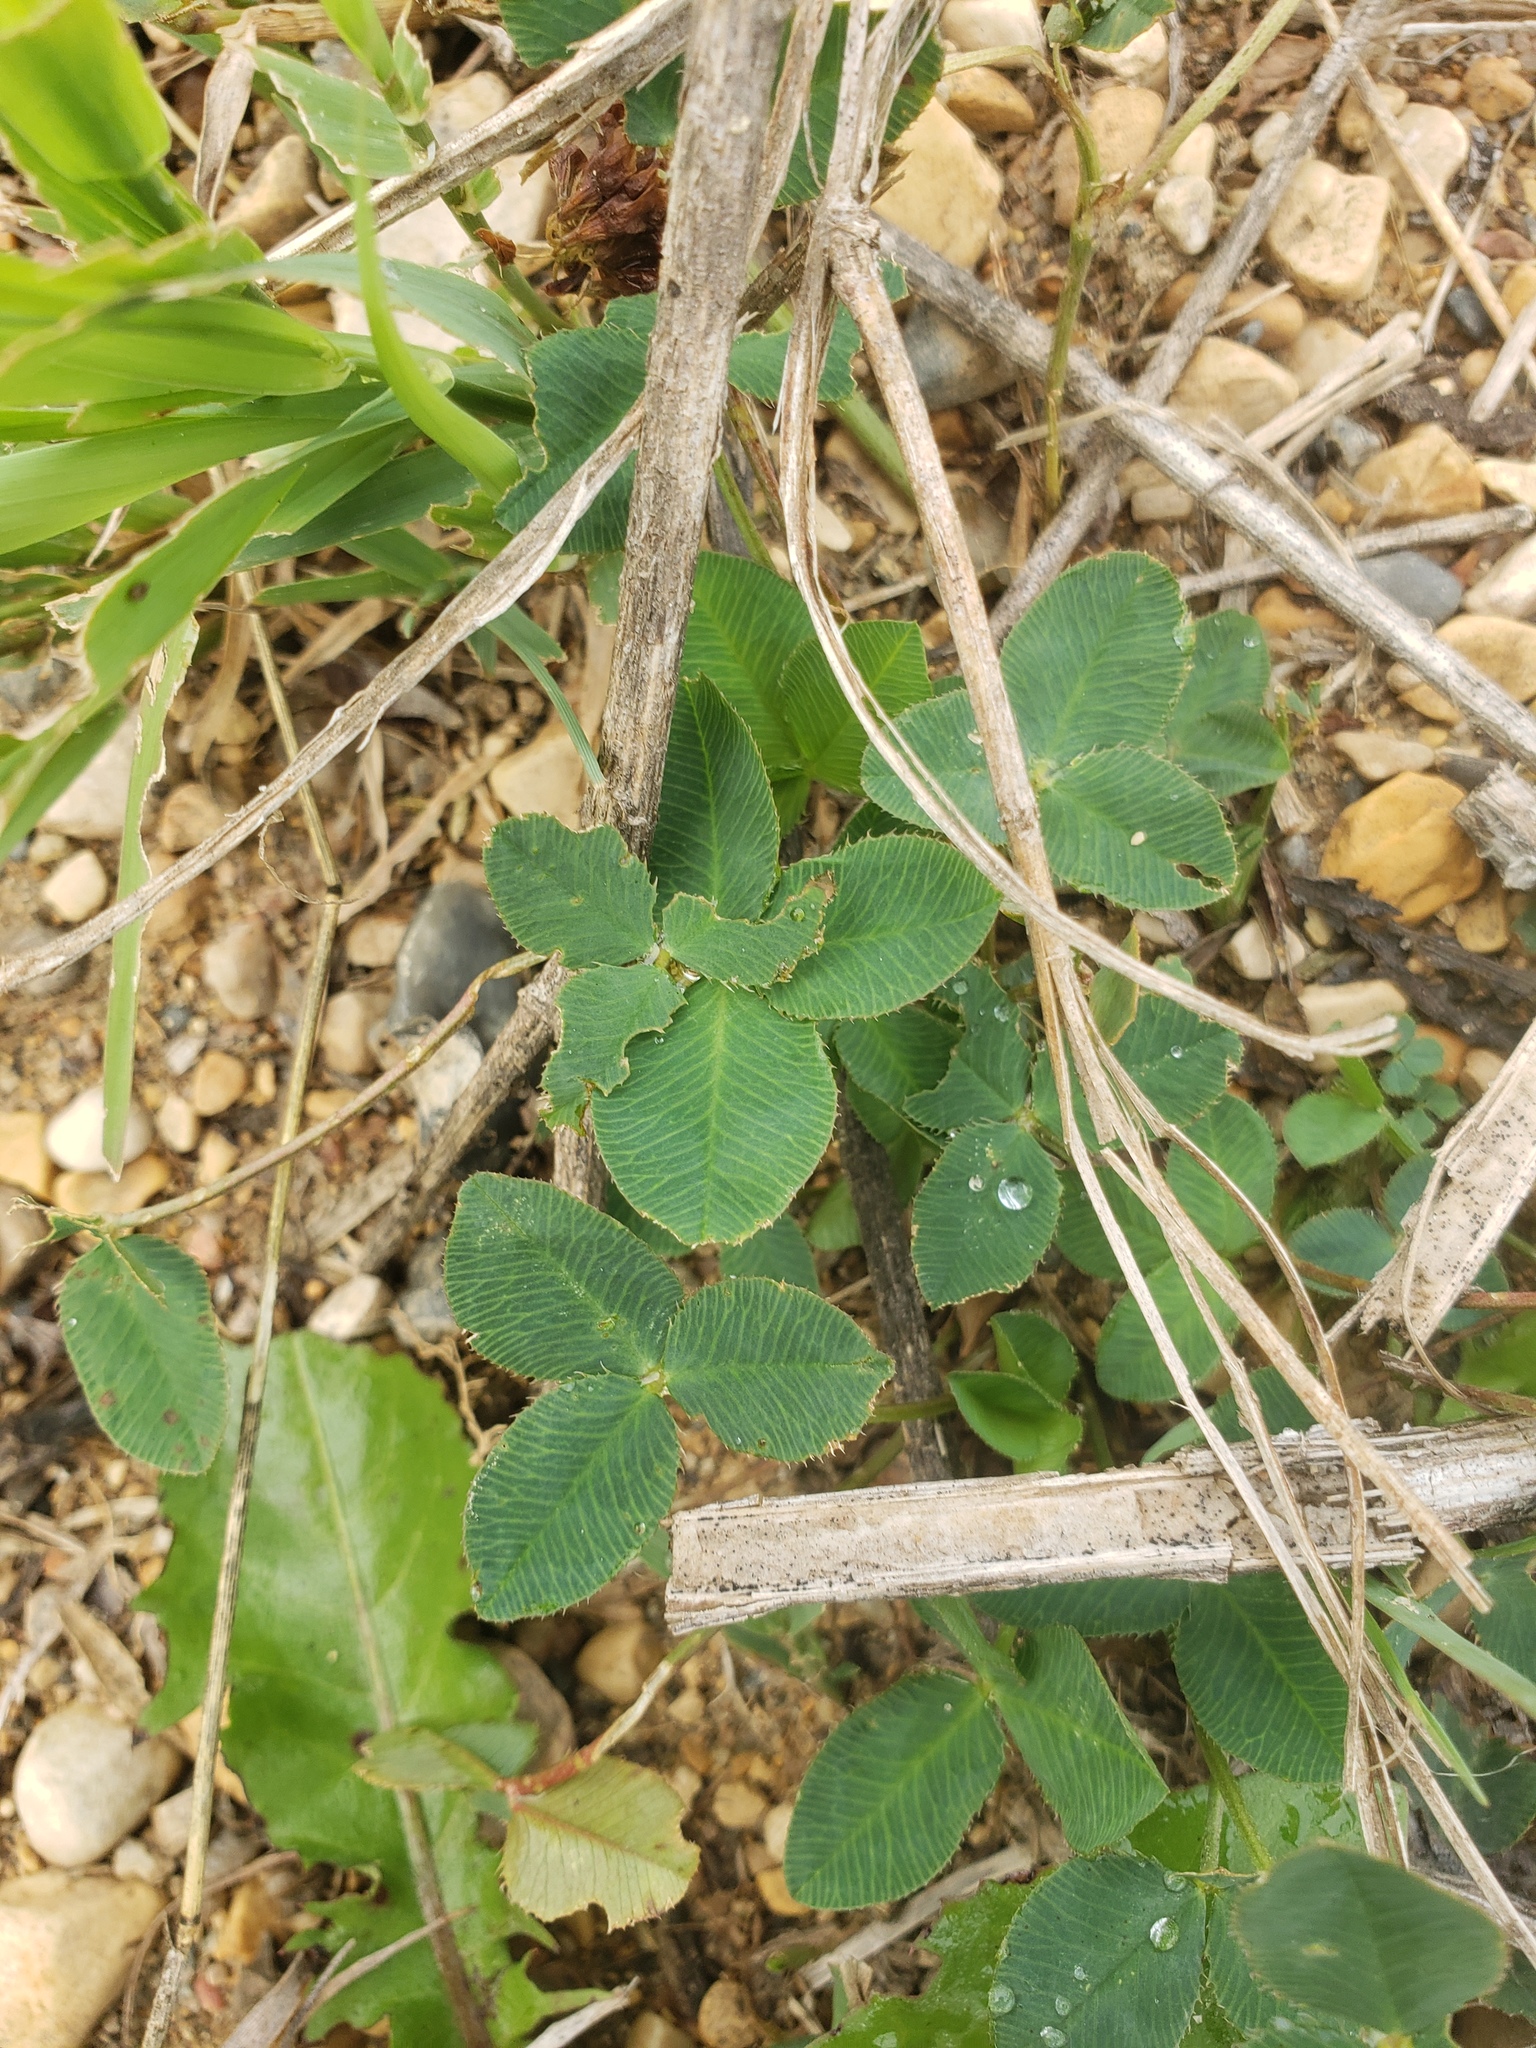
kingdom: Plantae
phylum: Tracheophyta
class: Magnoliopsida
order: Fabales
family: Fabaceae
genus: Trifolium
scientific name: Trifolium hybridum
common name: Alsike clover
